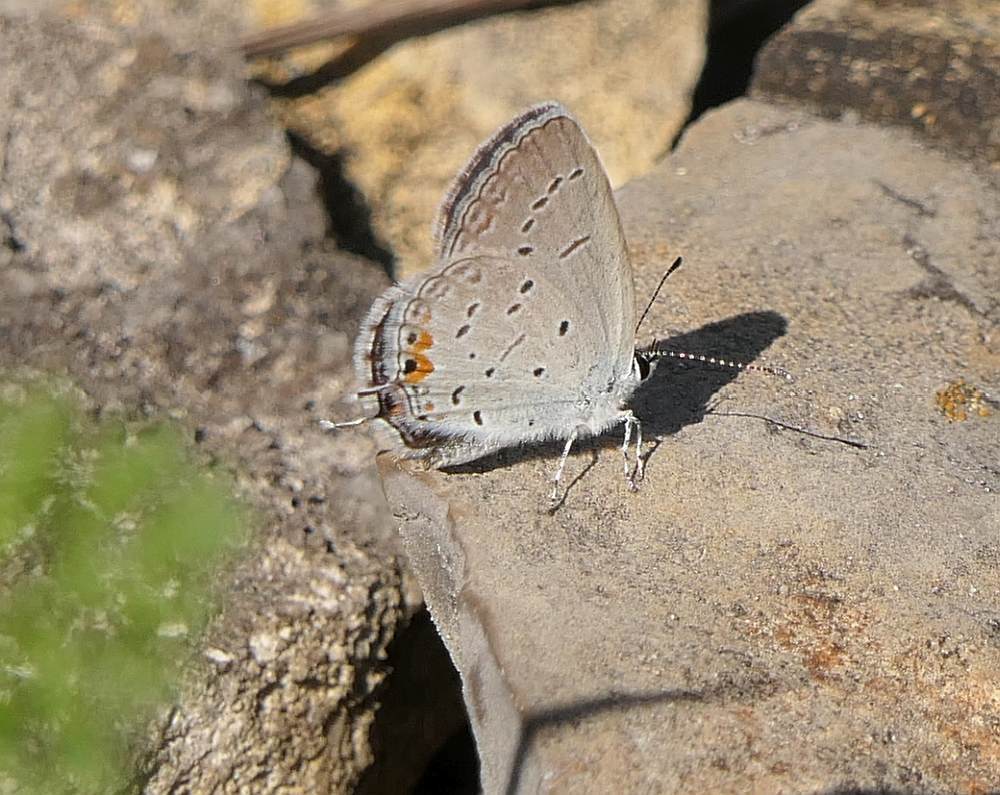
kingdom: Animalia
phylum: Arthropoda
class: Insecta
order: Lepidoptera
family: Lycaenidae
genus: Elkalyce
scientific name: Elkalyce comyntas
